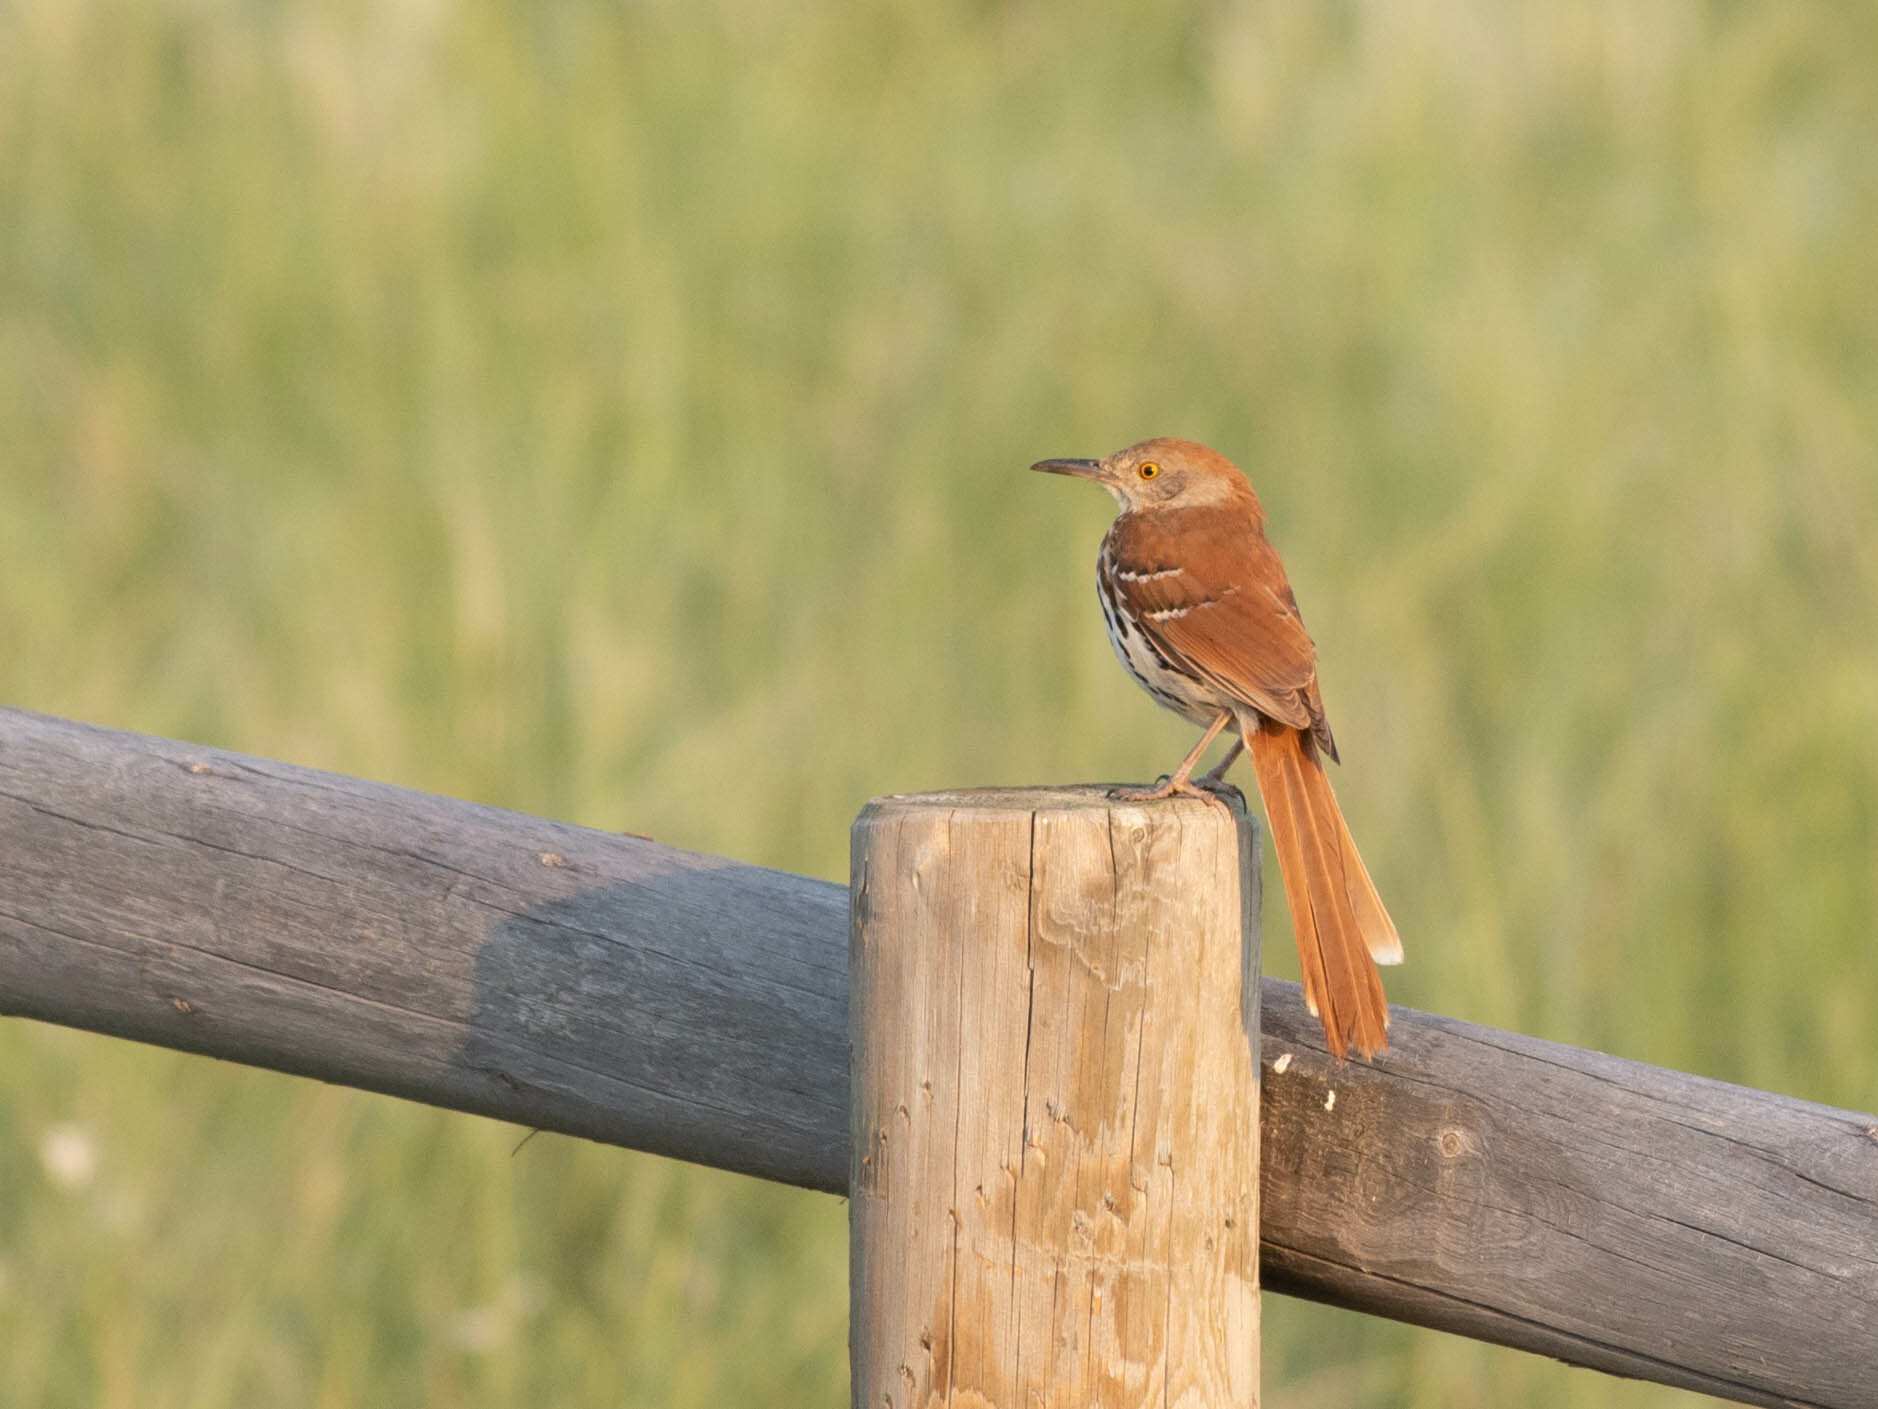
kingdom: Animalia
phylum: Chordata
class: Aves
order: Passeriformes
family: Mimidae
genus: Toxostoma
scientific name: Toxostoma rufum
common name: Brown thrasher
